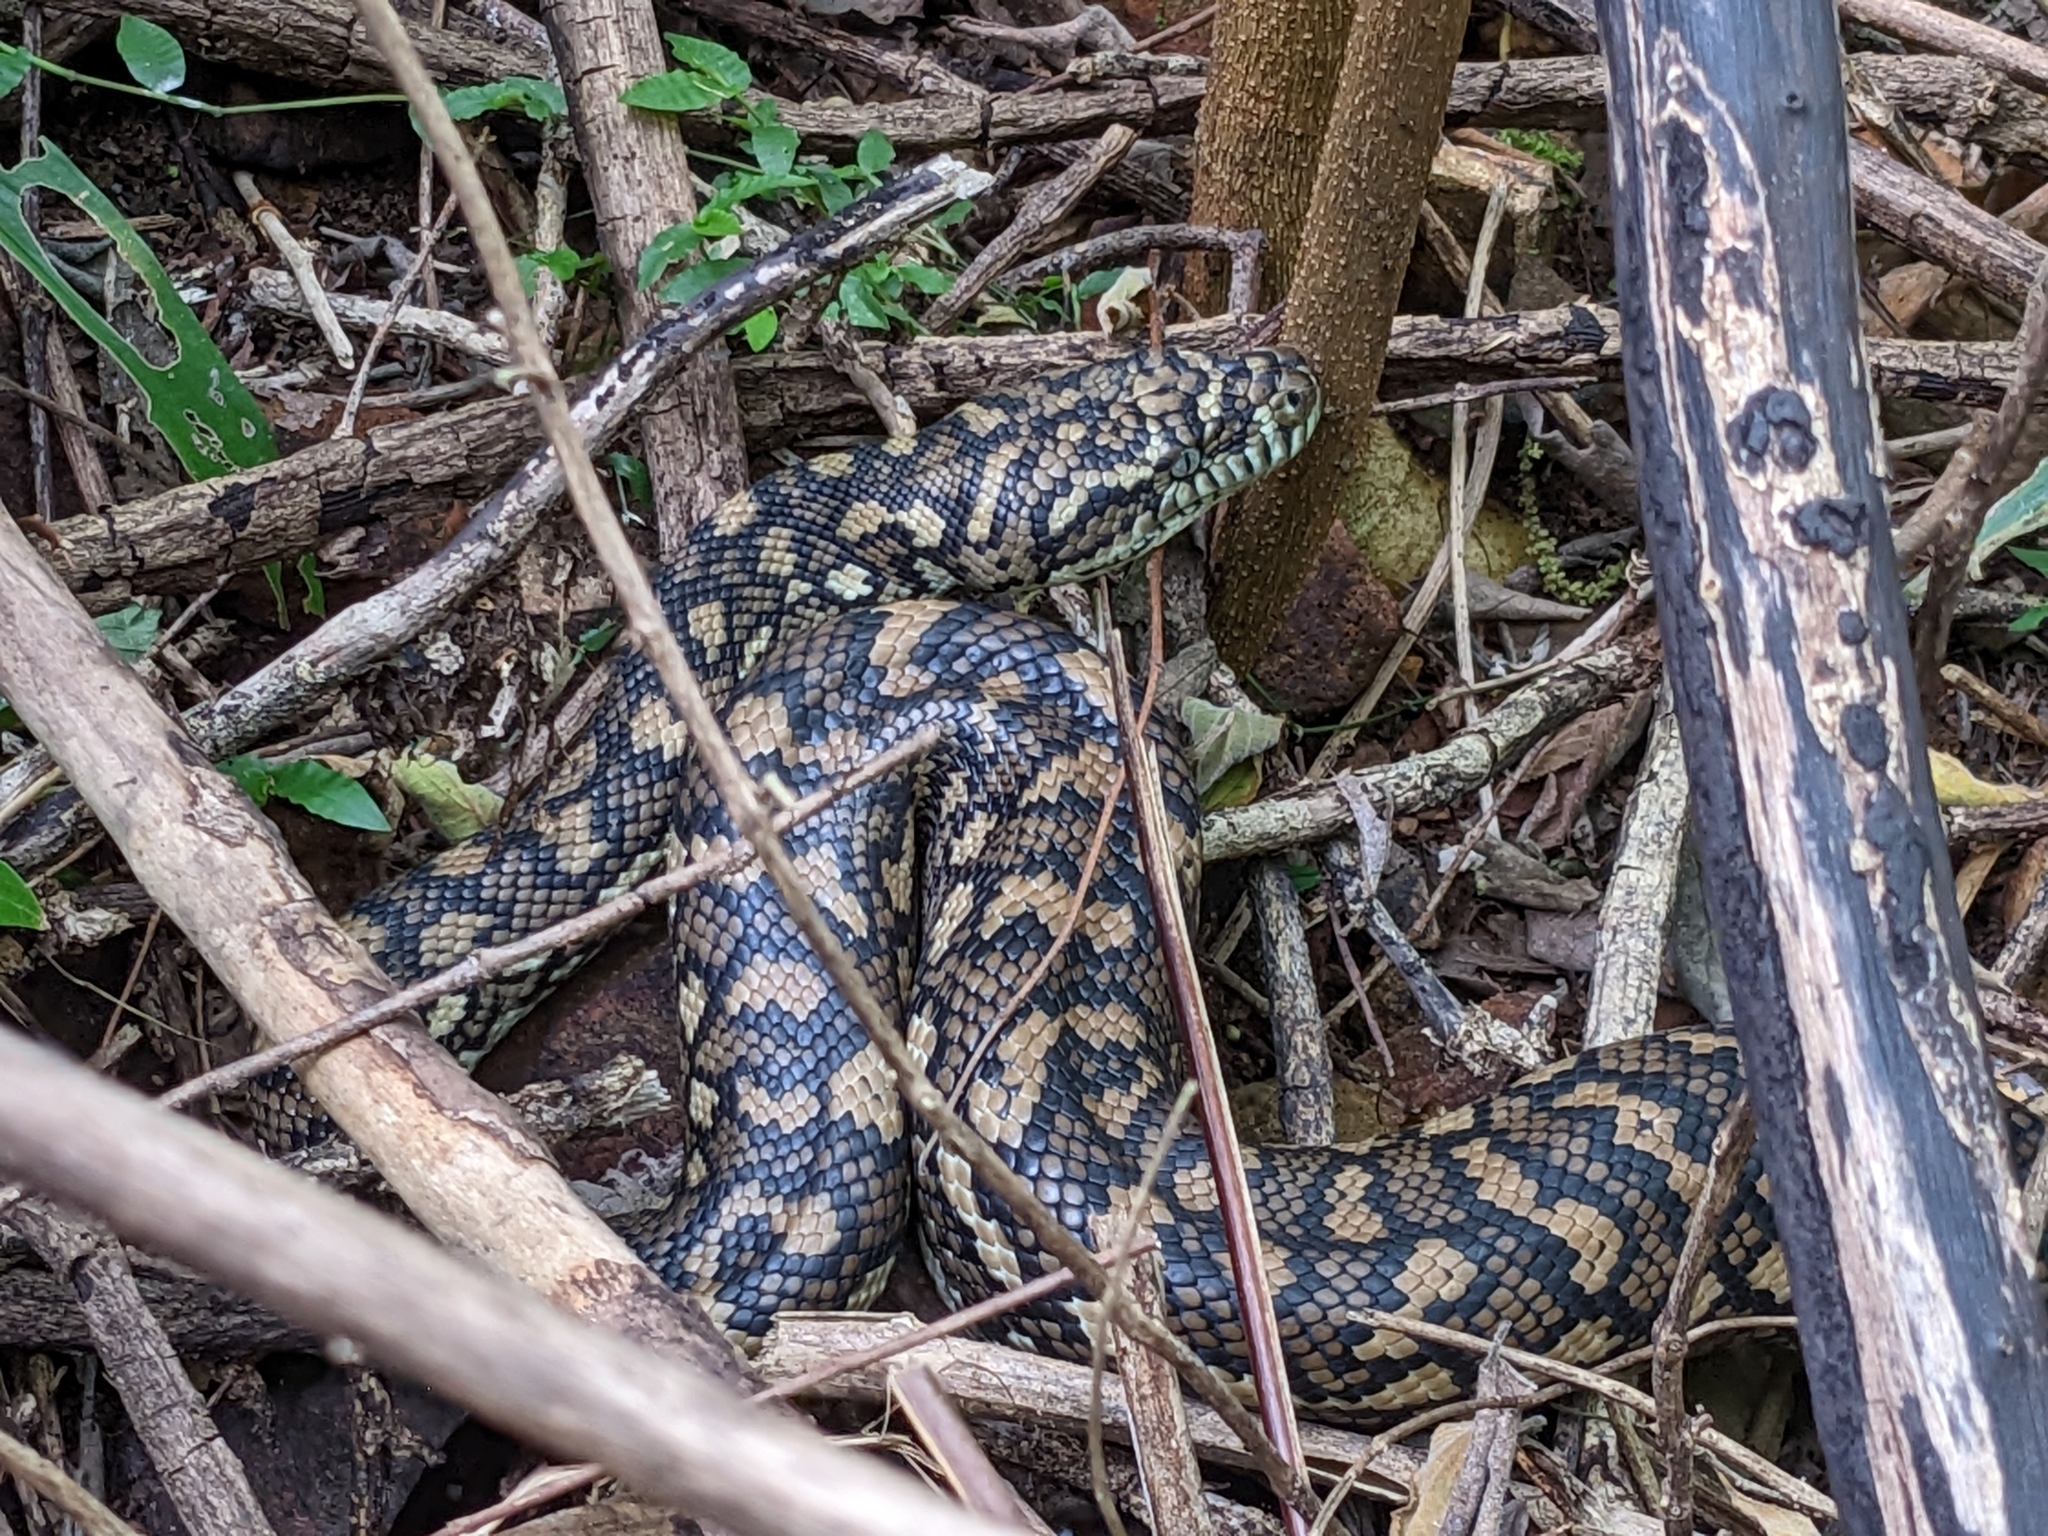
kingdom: Animalia
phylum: Chordata
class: Squamata
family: Pythonidae
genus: Morelia
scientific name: Morelia spilota
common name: Carpet python
